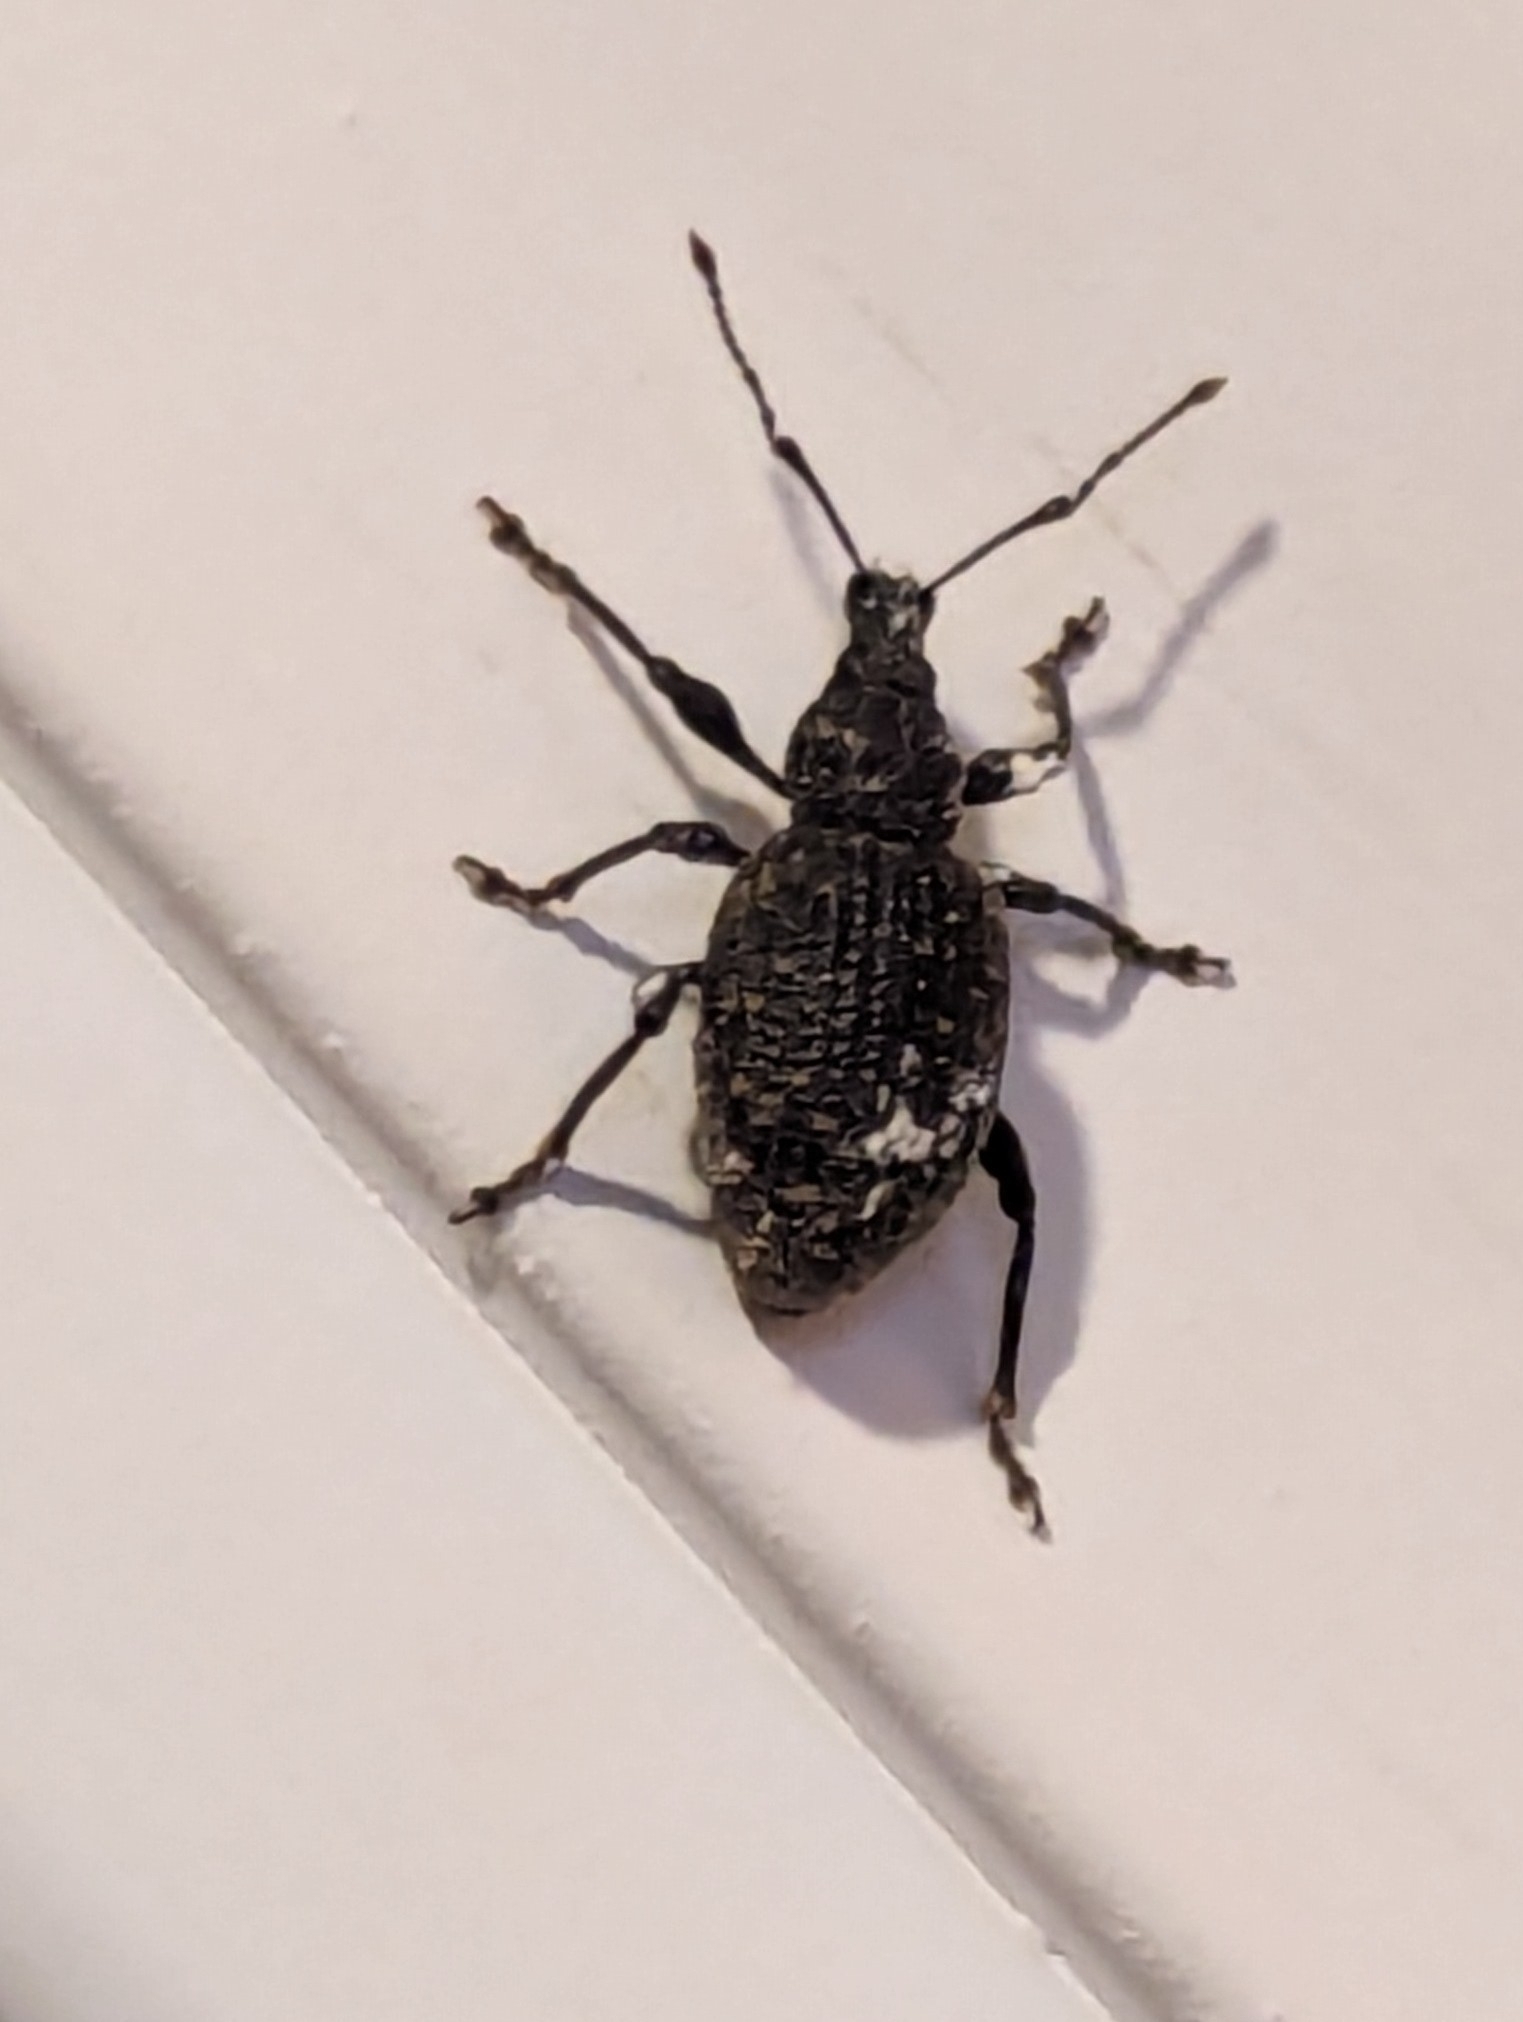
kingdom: Animalia
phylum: Arthropoda
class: Insecta
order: Coleoptera
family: Curculionidae
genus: Otiorhynchus
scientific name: Otiorhynchus sulcatus
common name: Black vine weevil
